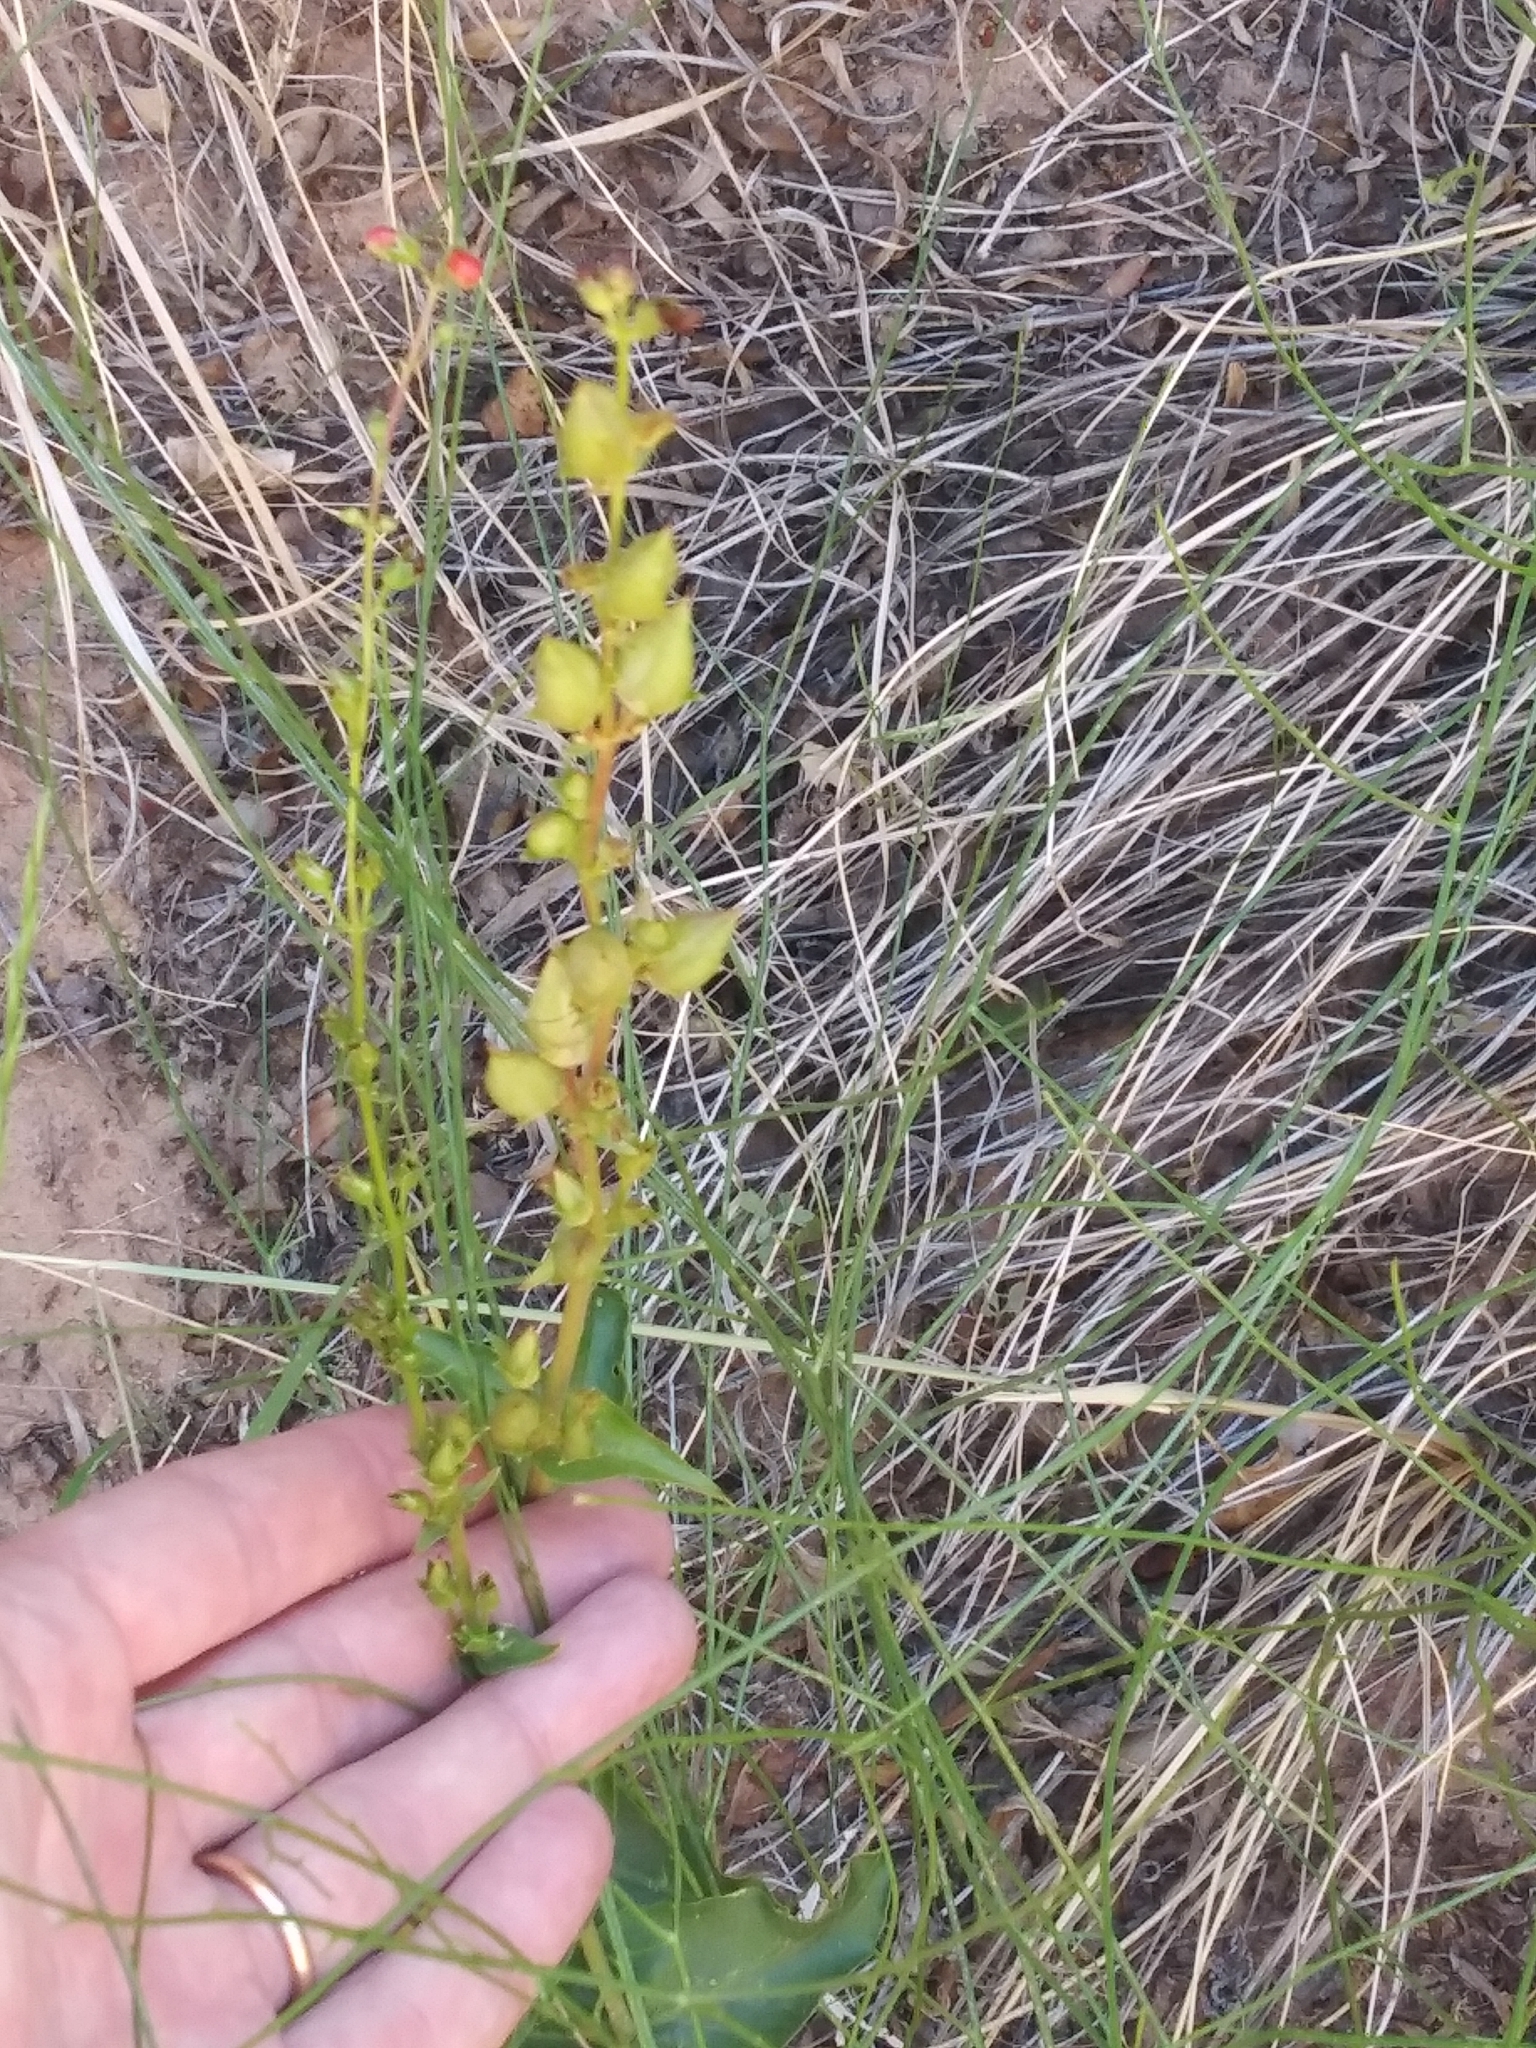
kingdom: Plantae
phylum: Tracheophyta
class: Magnoliopsida
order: Lamiales
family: Plantaginaceae
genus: Penstemon
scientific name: Penstemon eatonii
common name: Eaton's penstemon
